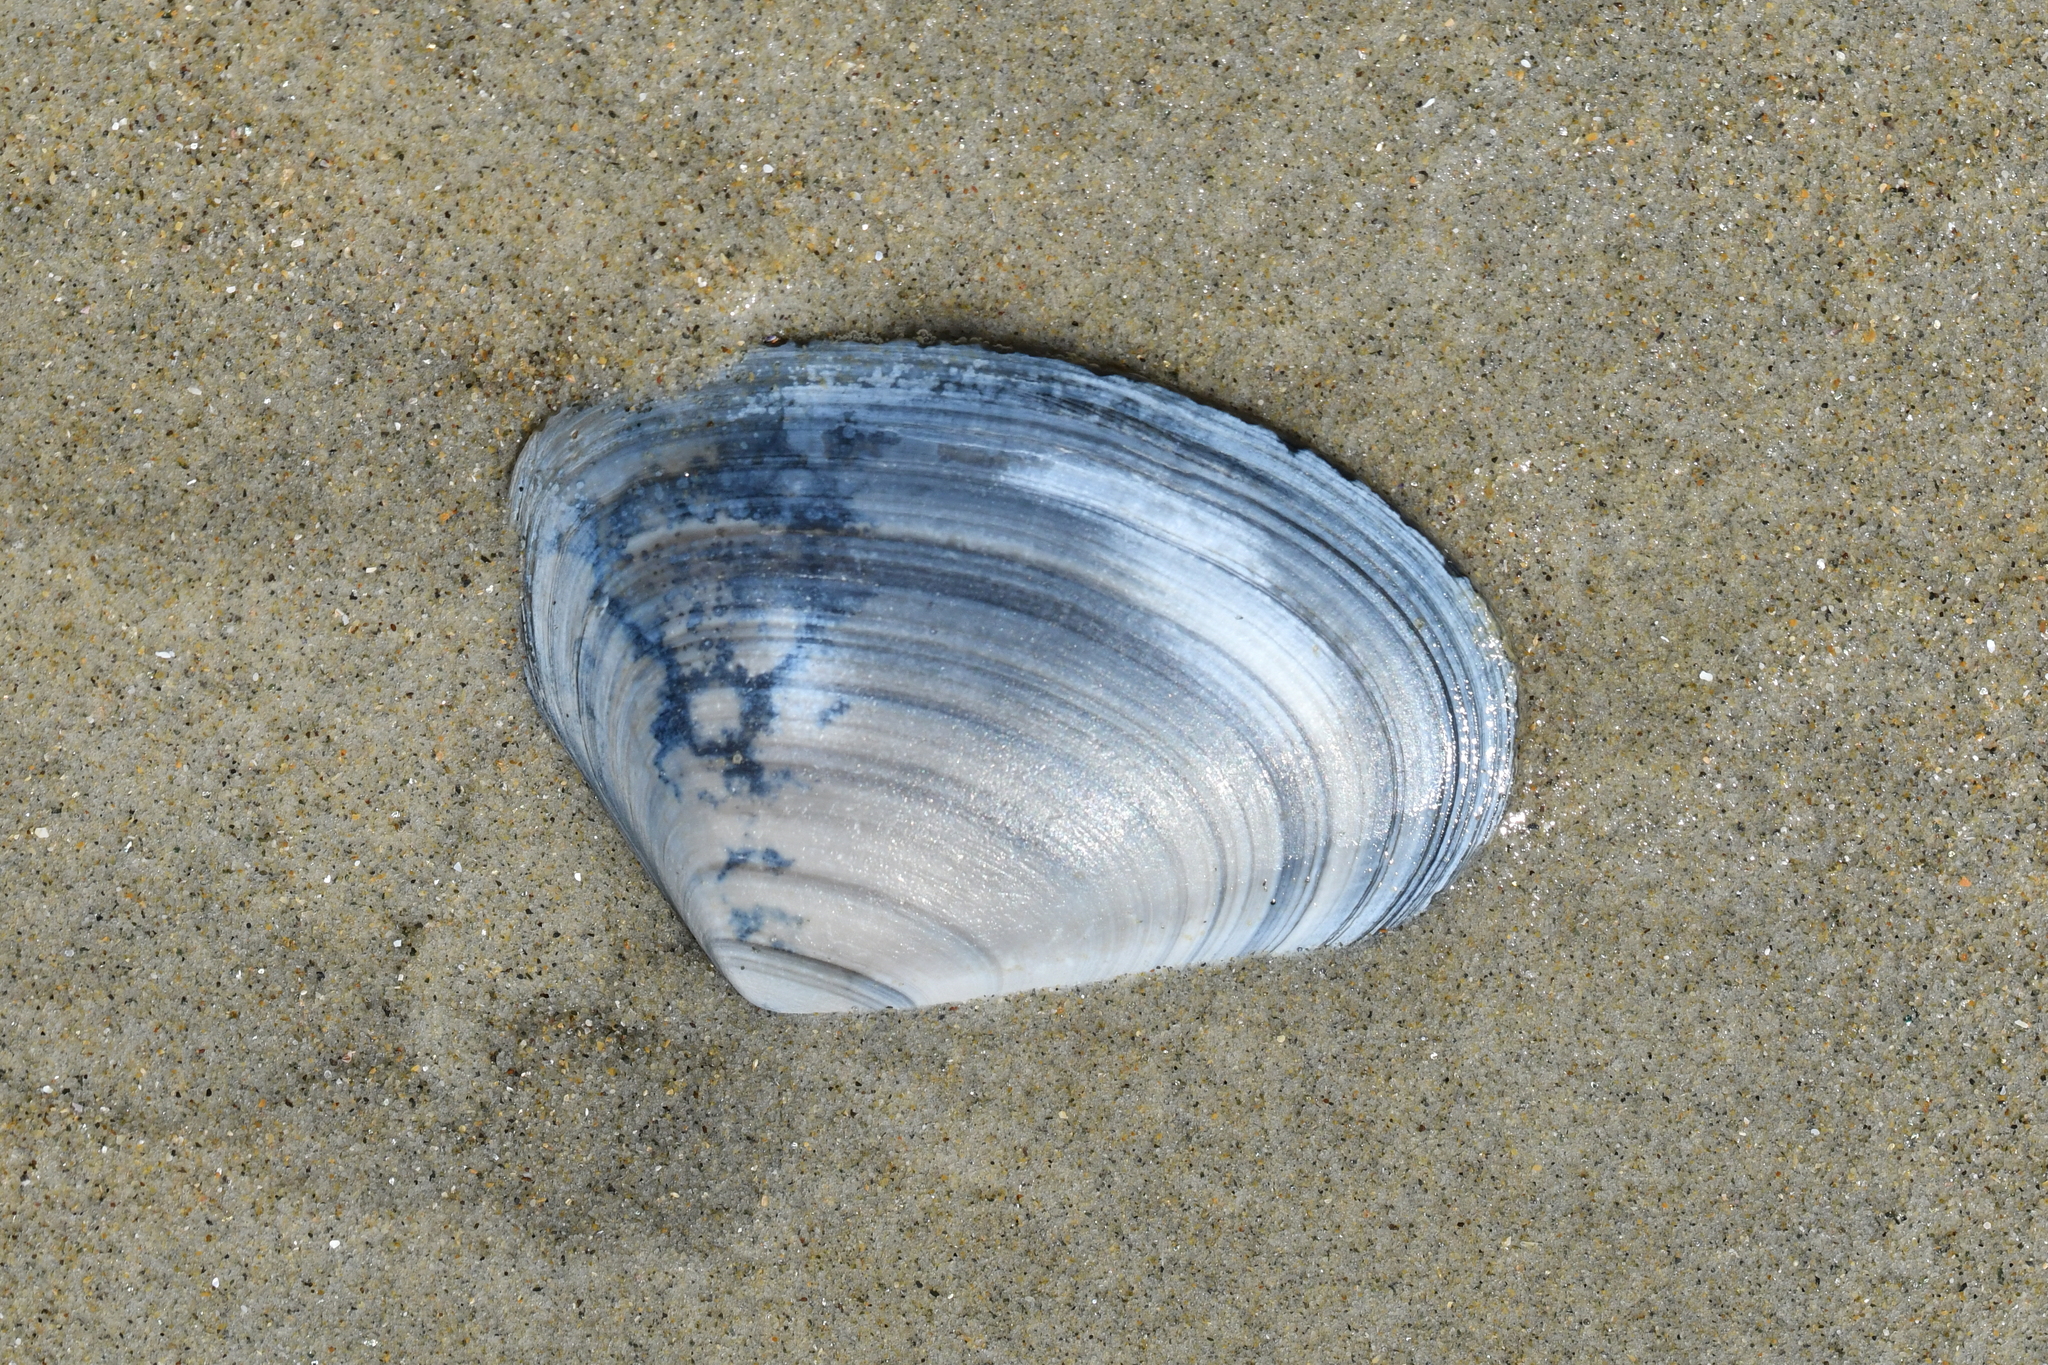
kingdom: Animalia
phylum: Mollusca
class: Bivalvia
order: Venerida
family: Mesodesmatidae
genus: Paphies
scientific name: Paphies donacina
